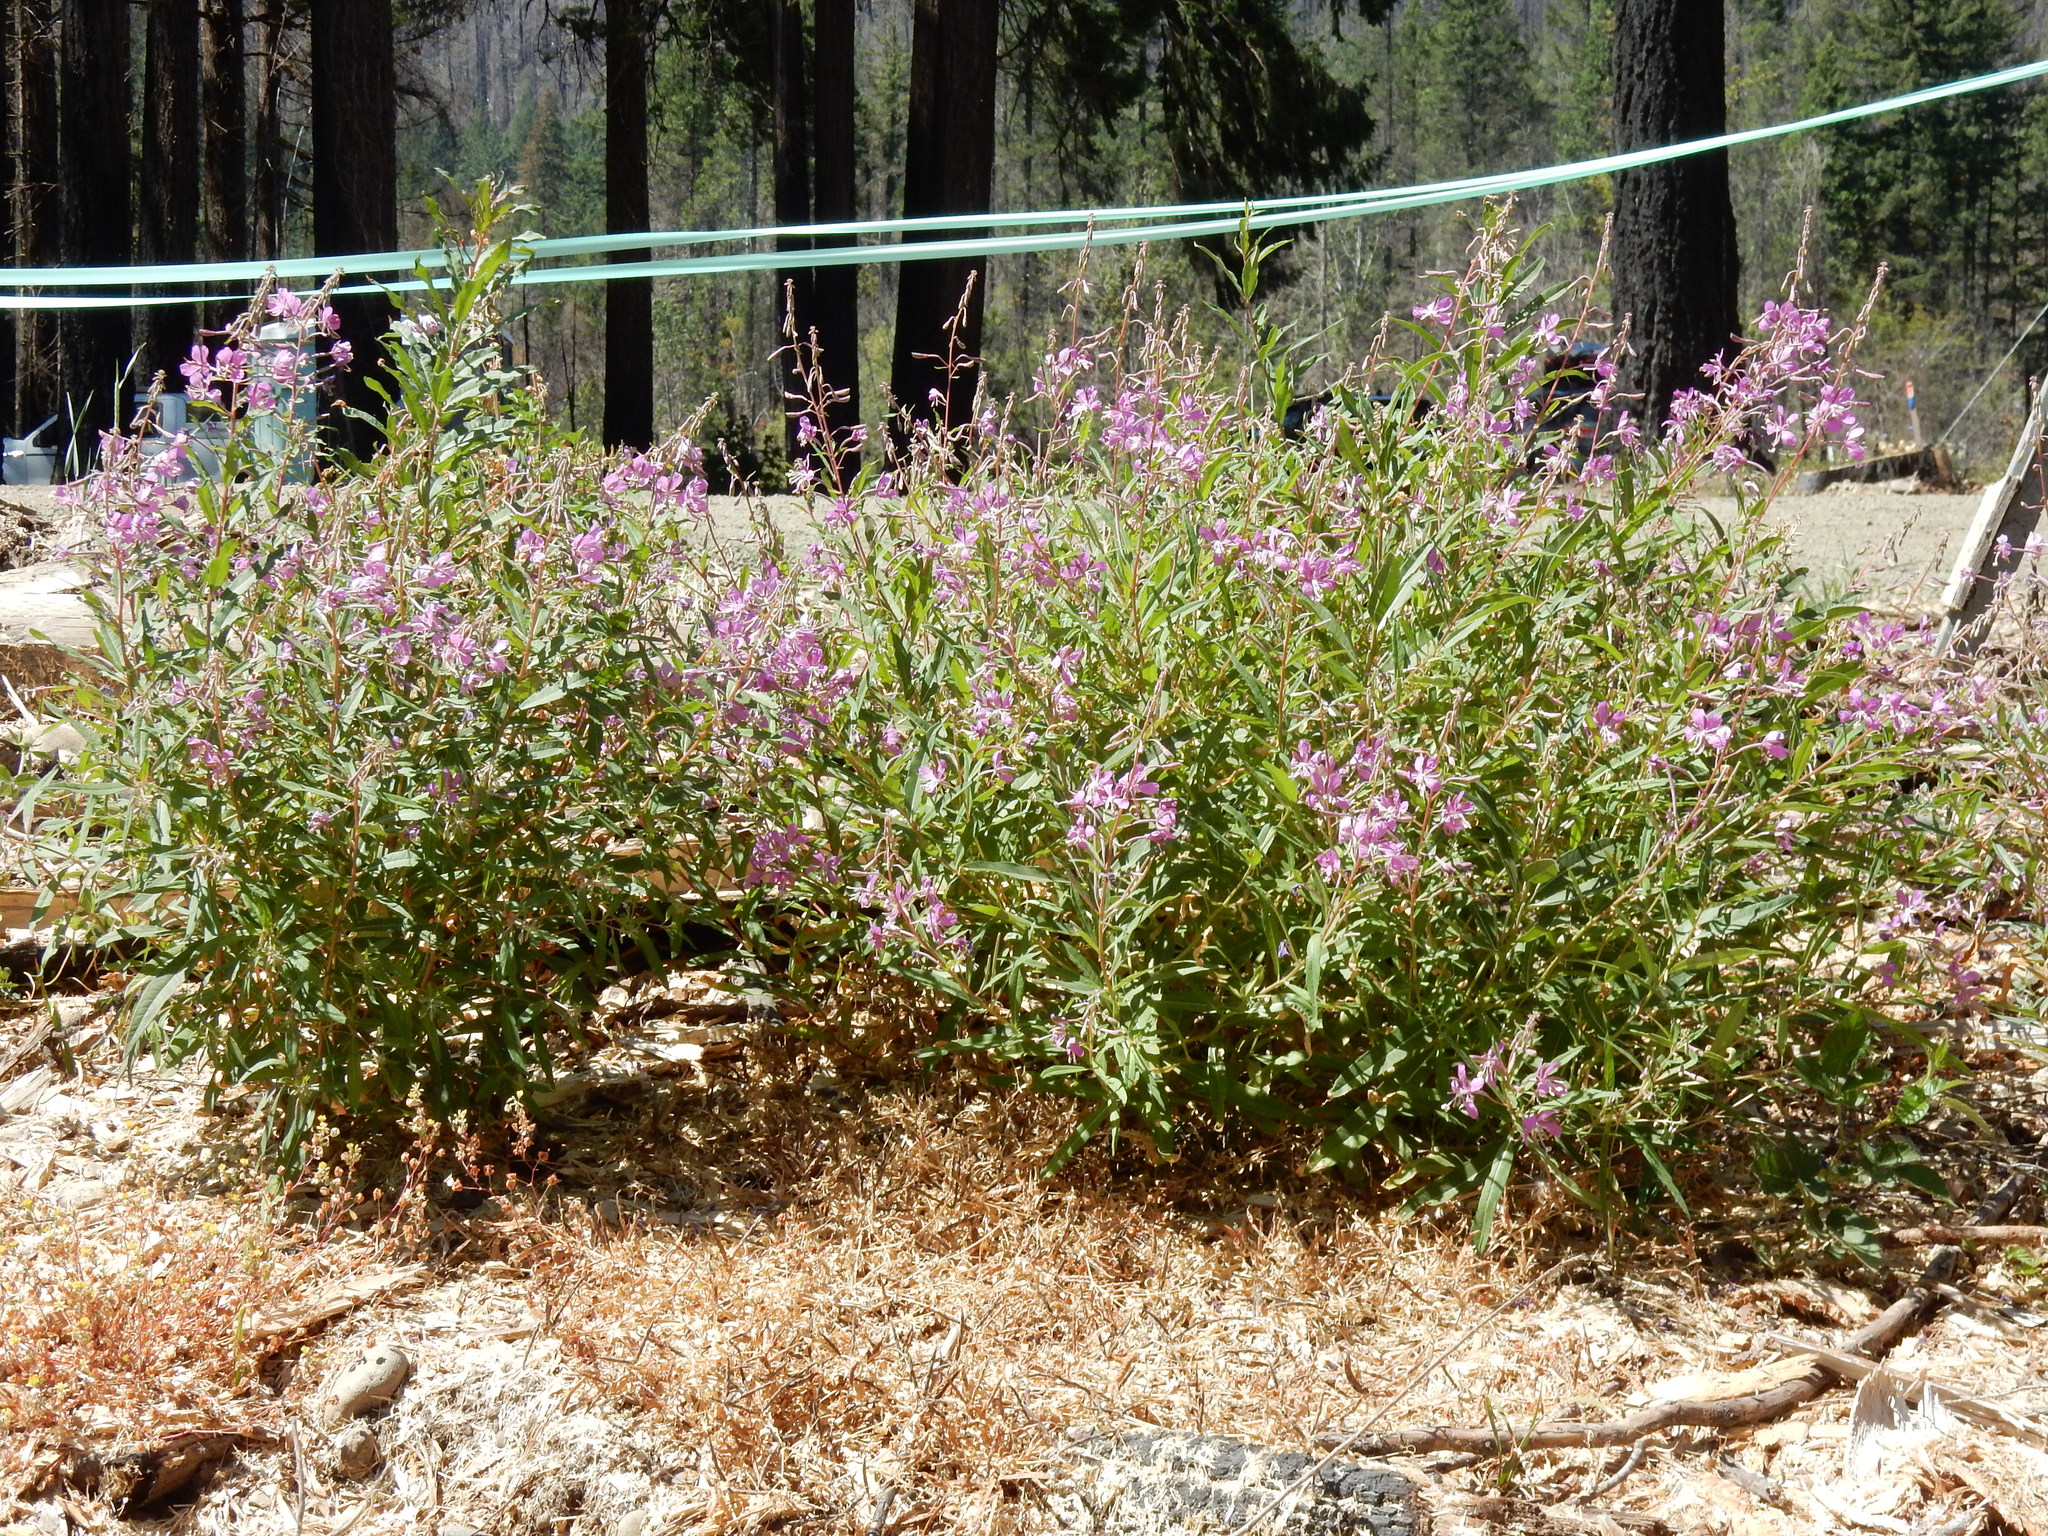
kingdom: Plantae
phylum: Tracheophyta
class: Magnoliopsida
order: Myrtales
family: Onagraceae
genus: Chamaenerion
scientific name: Chamaenerion angustifolium
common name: Fireweed
